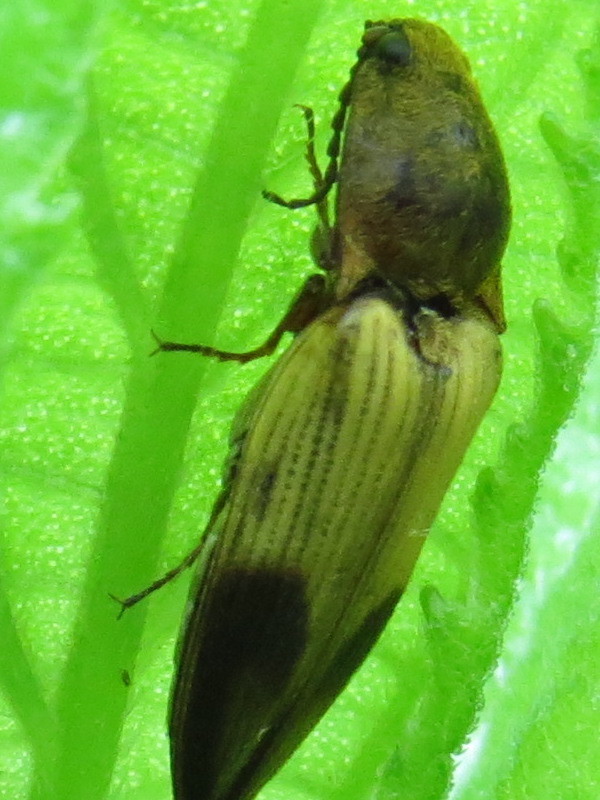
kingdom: Animalia
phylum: Arthropoda
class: Insecta
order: Coleoptera
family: Elateridae
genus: Stropenron
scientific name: Stropenron hamata
